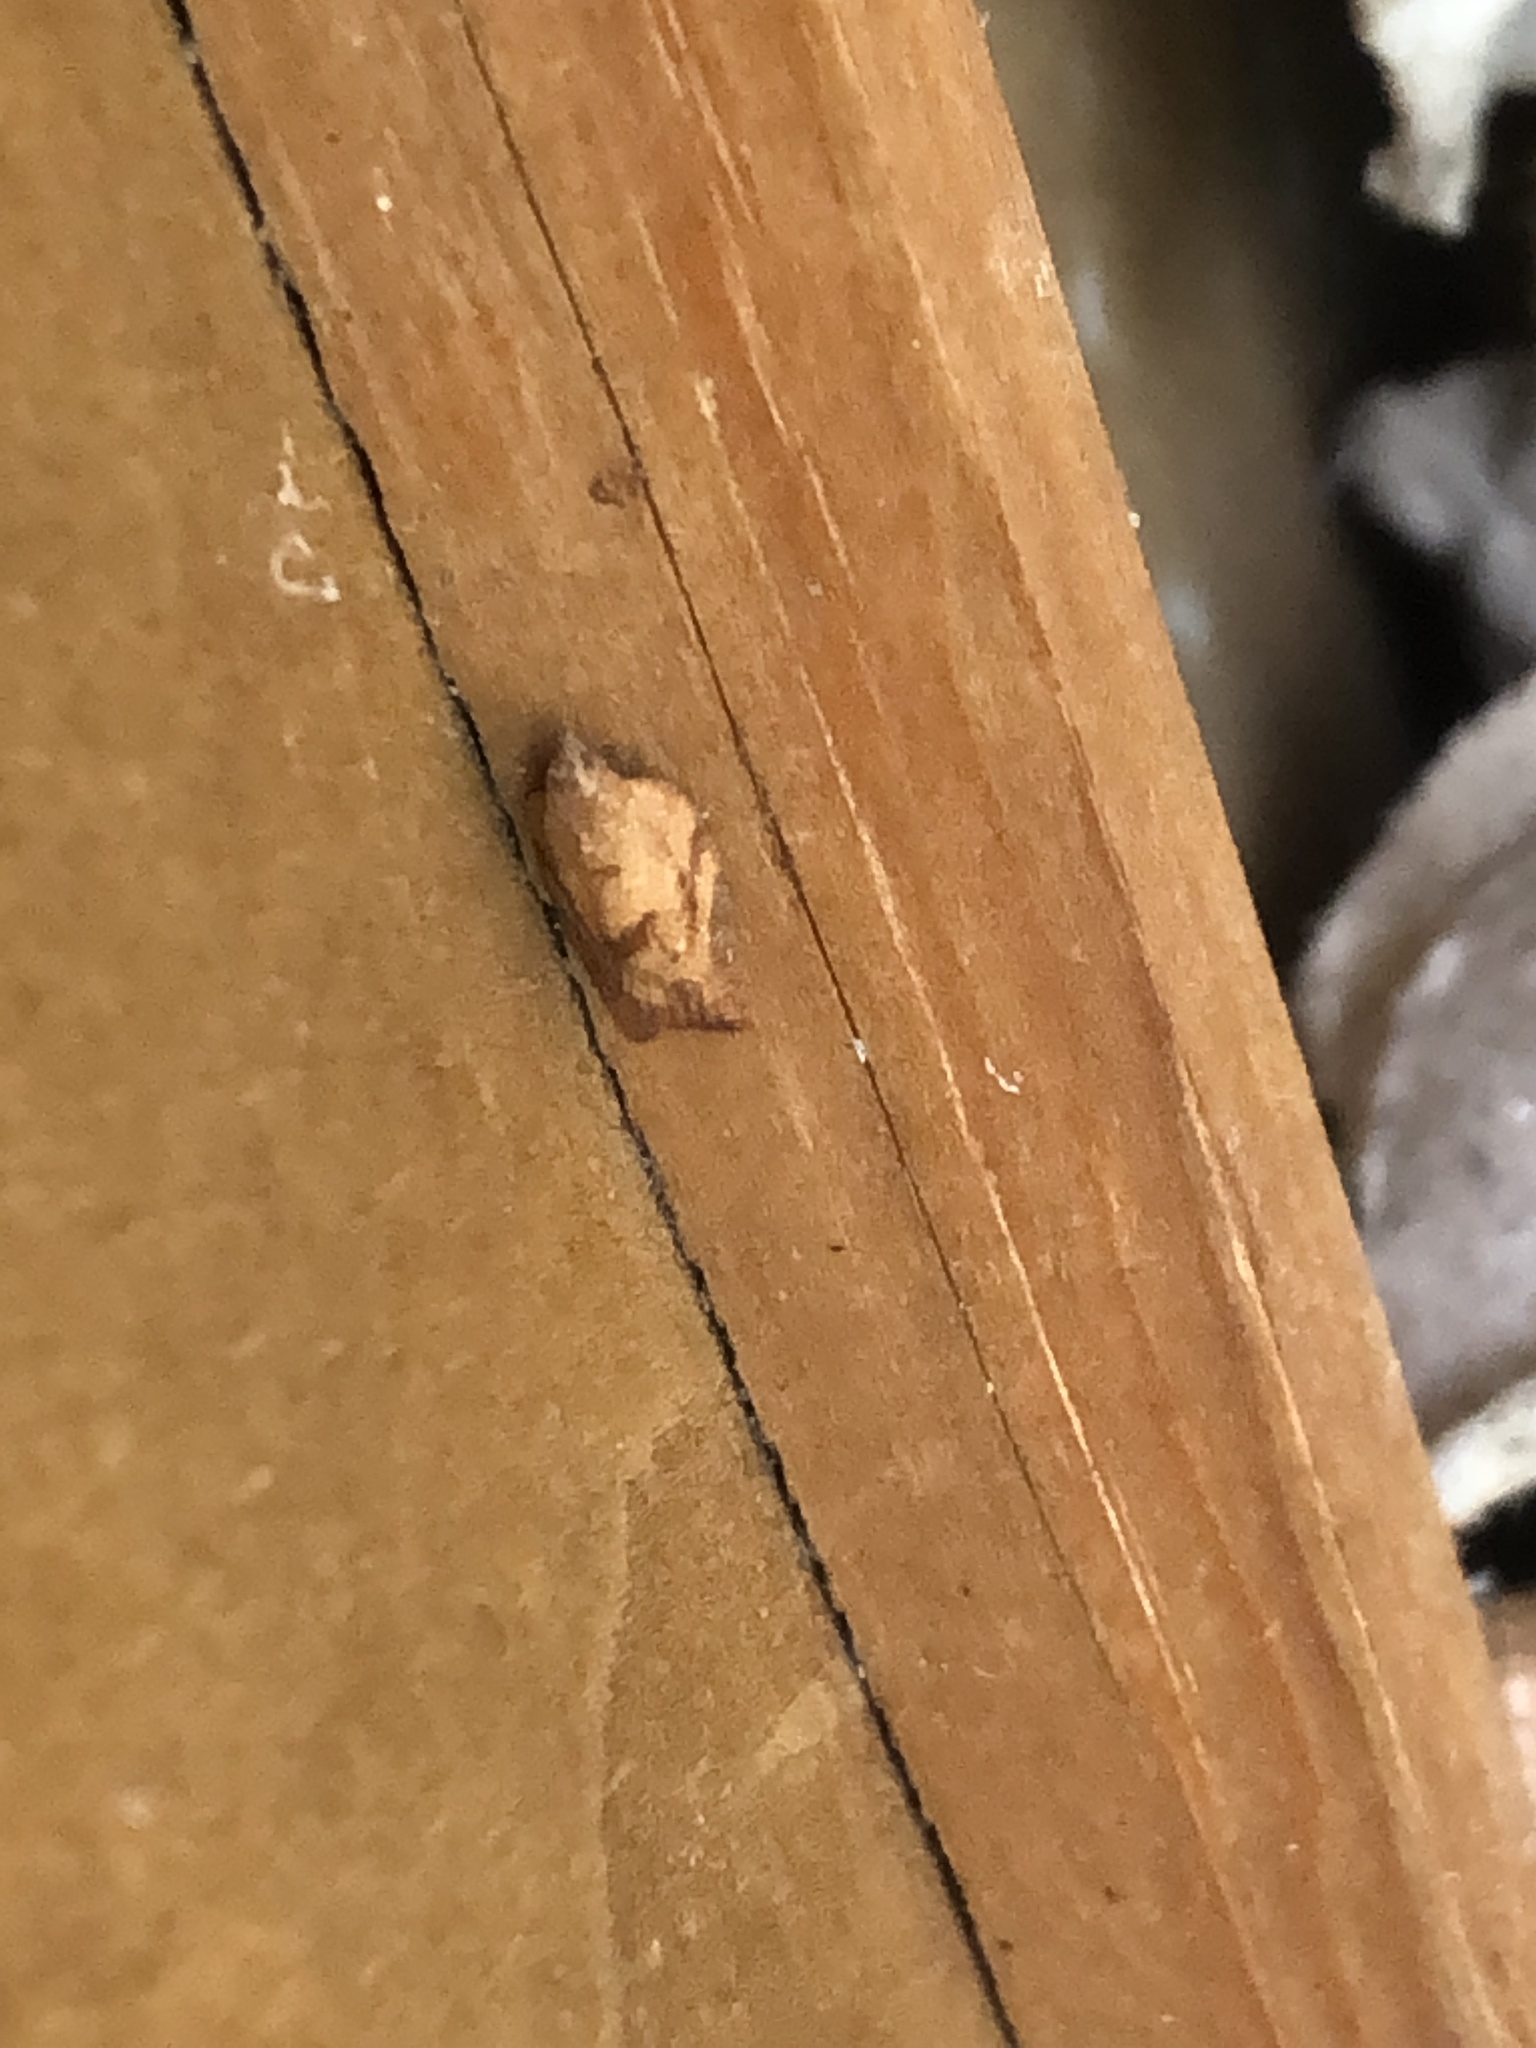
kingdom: Animalia
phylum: Arthropoda
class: Insecta
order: Lepidoptera
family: Tortricidae
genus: Epiphyas
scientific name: Epiphyas postvittana
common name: Light brown apple moth
